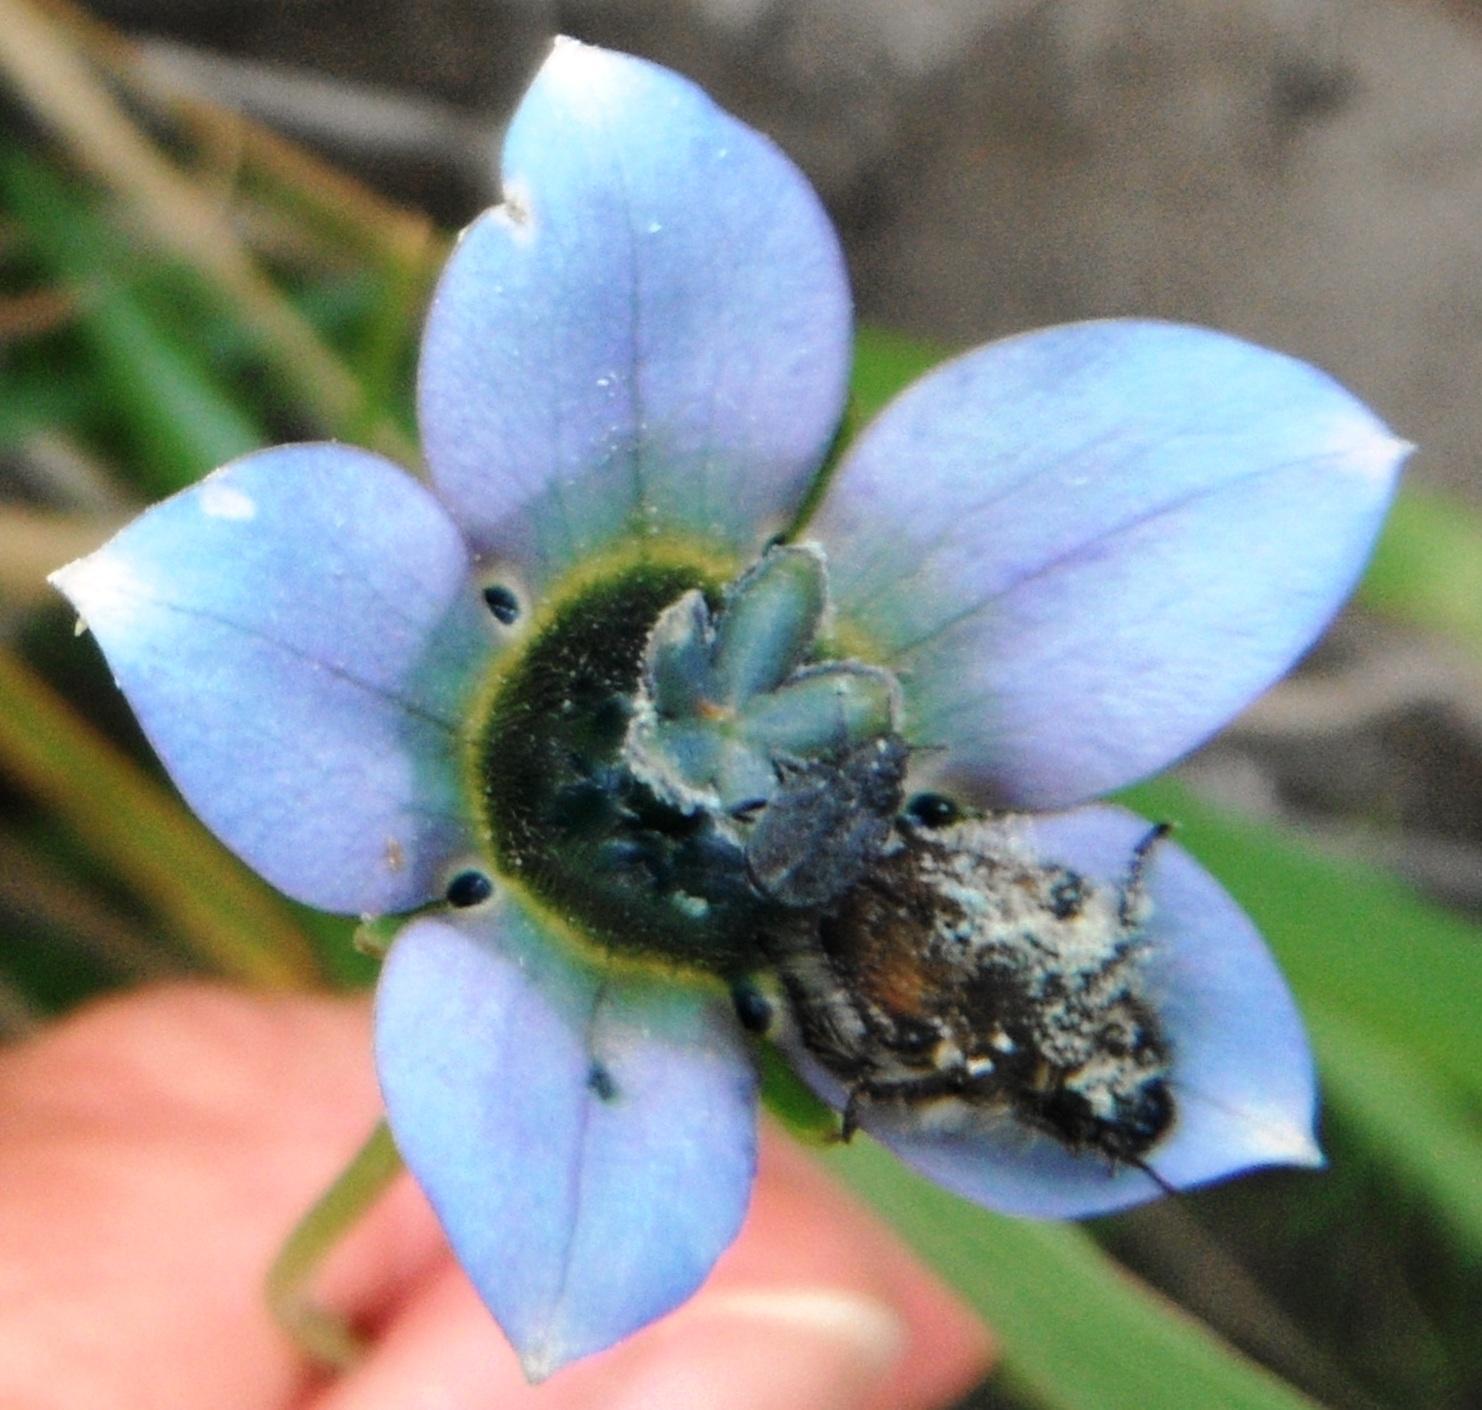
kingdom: Plantae
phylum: Tracheophyta
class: Magnoliopsida
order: Asterales
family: Campanulaceae
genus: Wahlenbergia
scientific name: Wahlenbergia capensis
